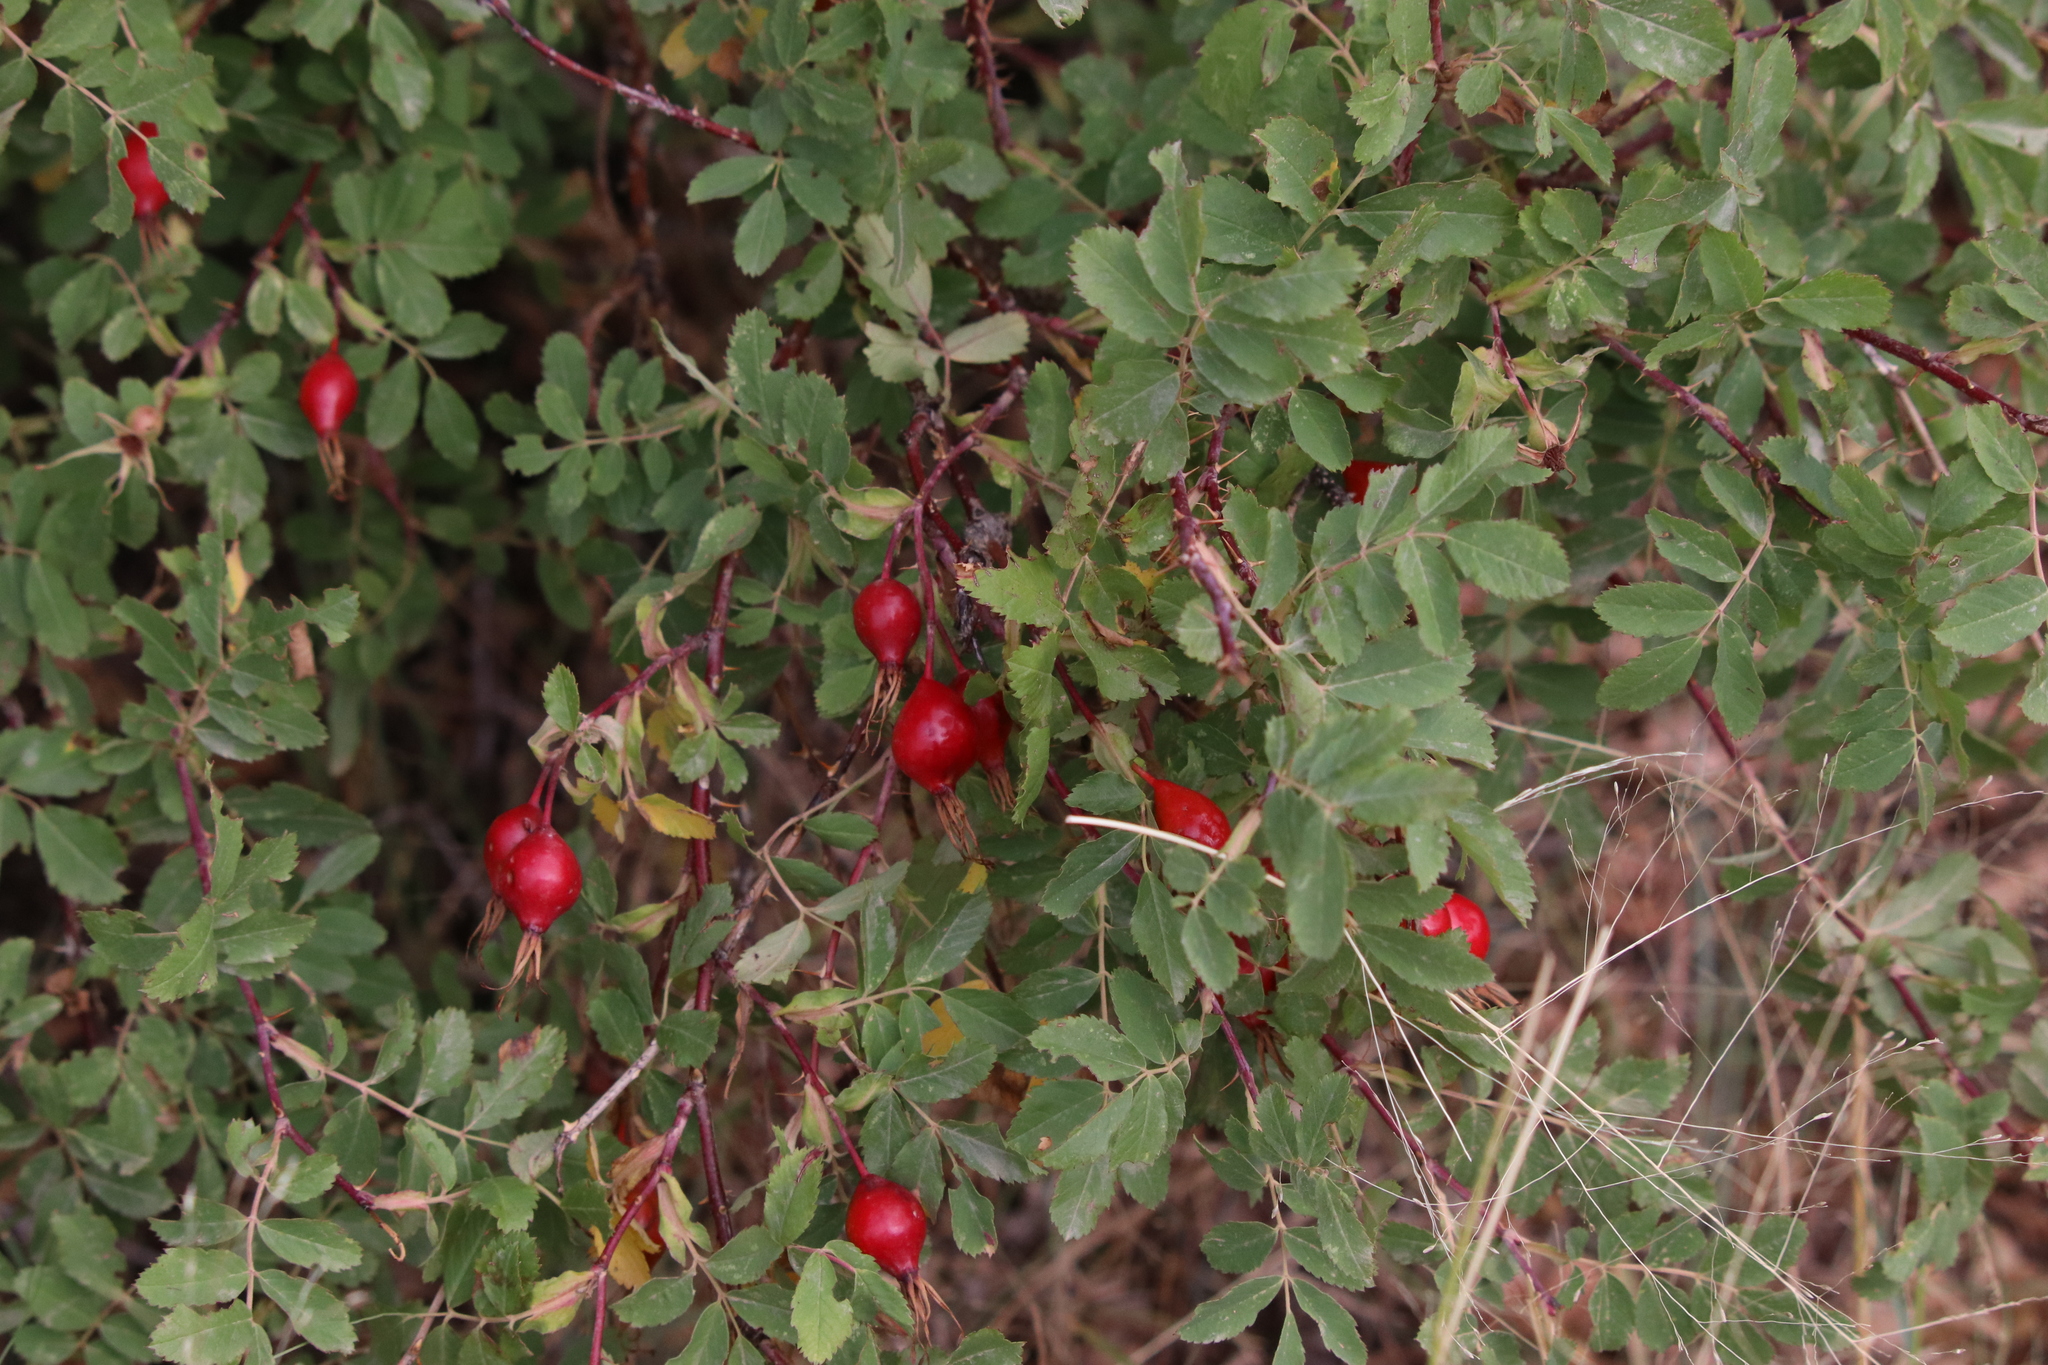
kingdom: Plantae
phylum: Tracheophyta
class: Magnoliopsida
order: Rosales
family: Rosaceae
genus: Rosa
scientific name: Rosa acicularis
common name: Prickly rose
